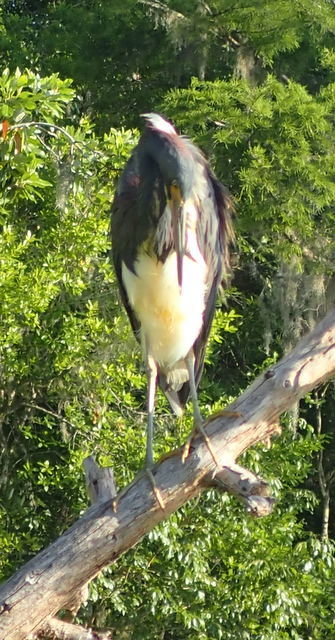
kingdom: Animalia
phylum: Chordata
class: Aves
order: Pelecaniformes
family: Ardeidae
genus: Egretta
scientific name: Egretta tricolor
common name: Tricolored heron
